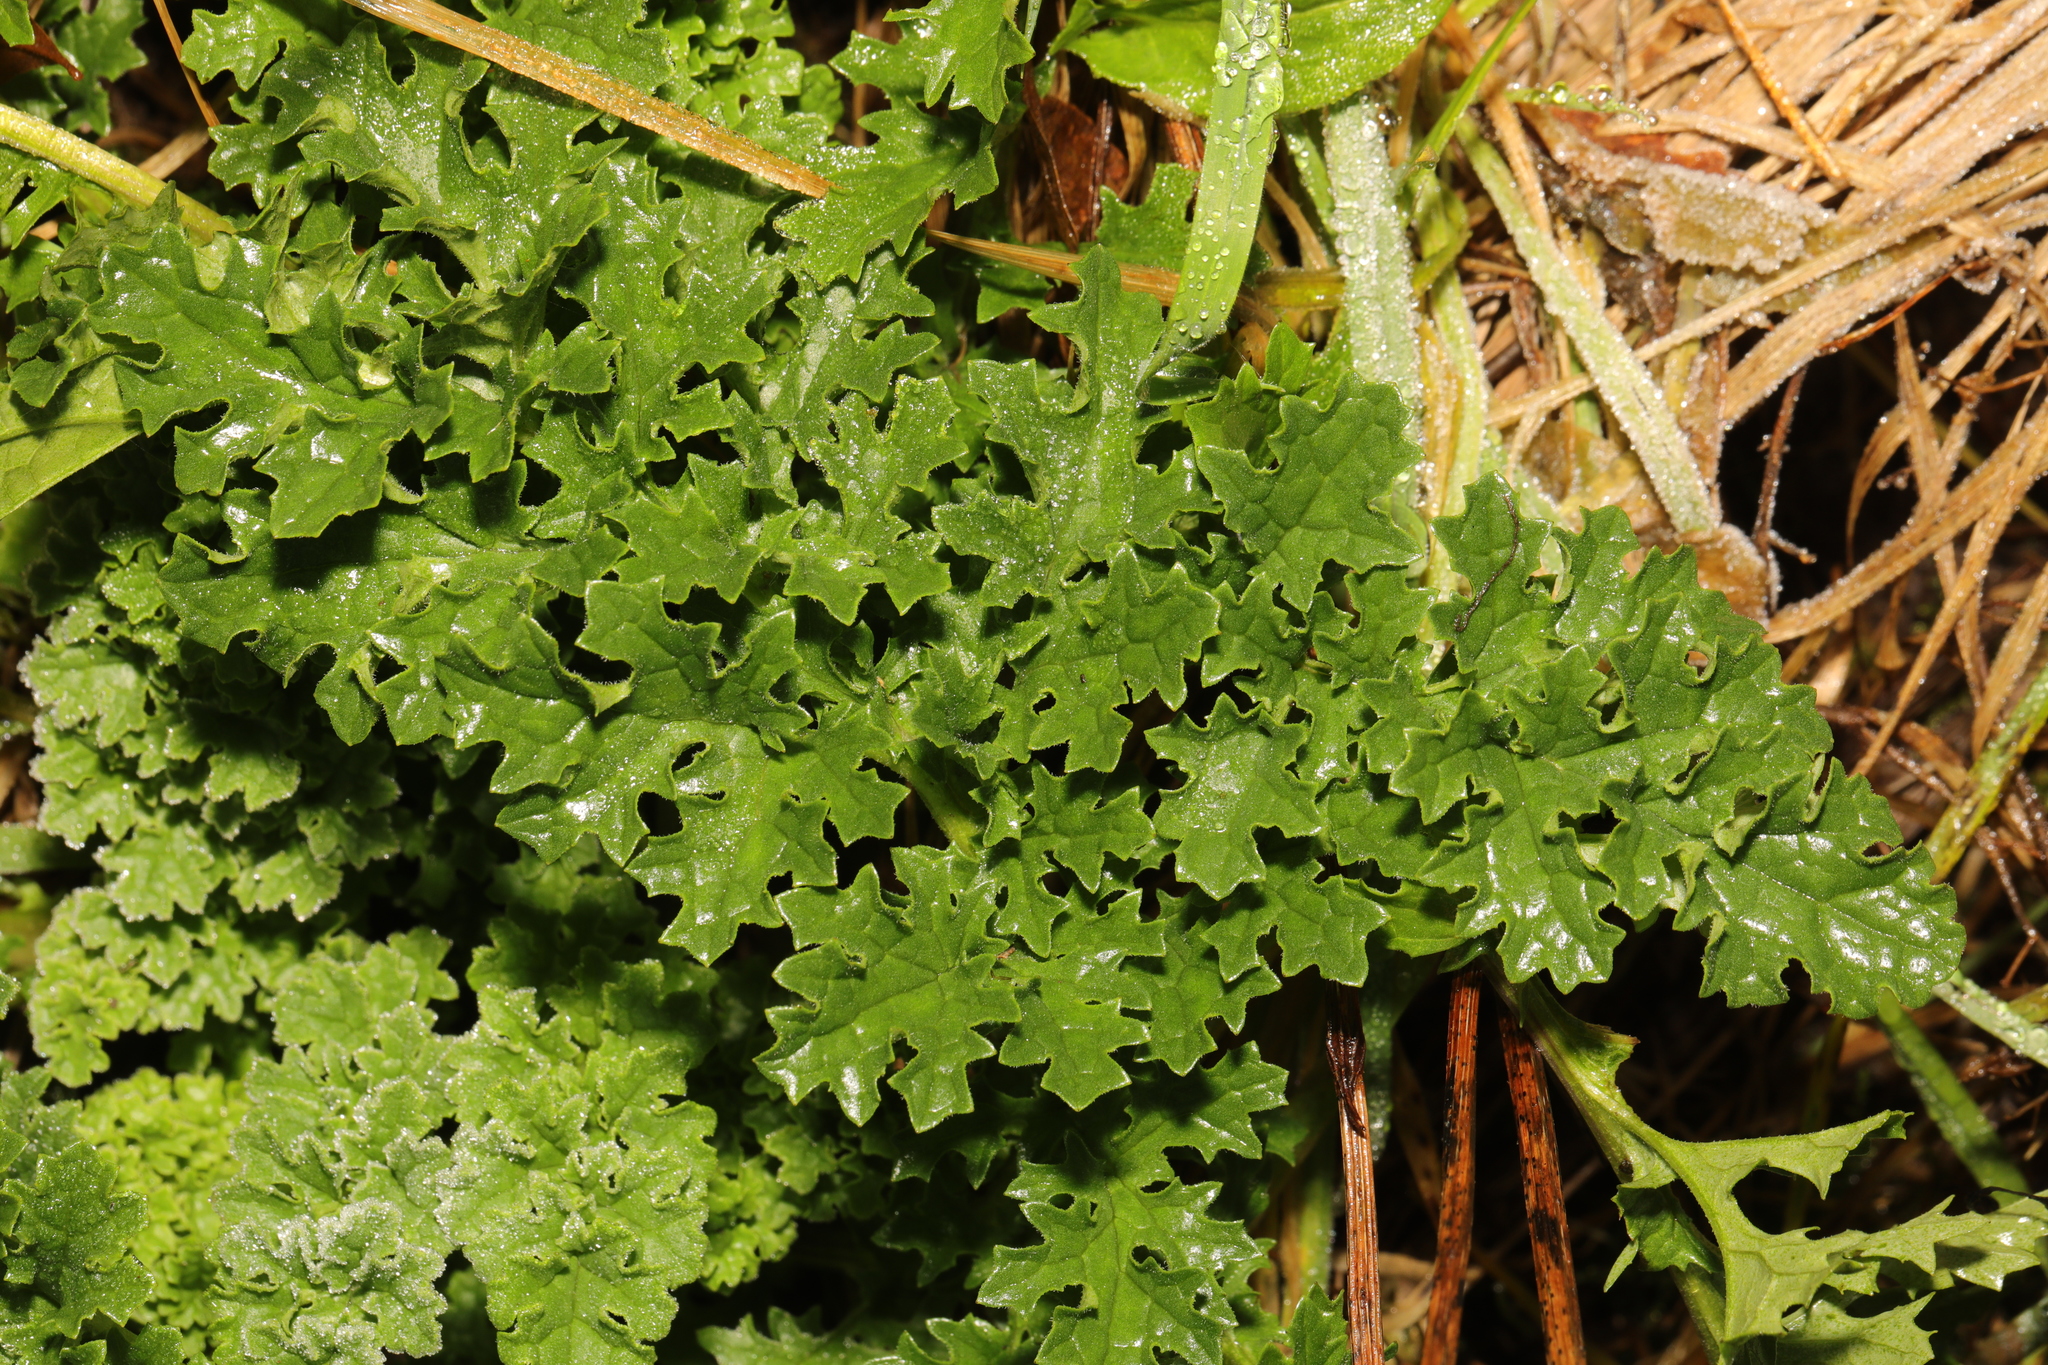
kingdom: Plantae
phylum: Tracheophyta
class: Magnoliopsida
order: Asterales
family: Asteraceae
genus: Jacobaea
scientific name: Jacobaea vulgaris
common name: Stinking willie
